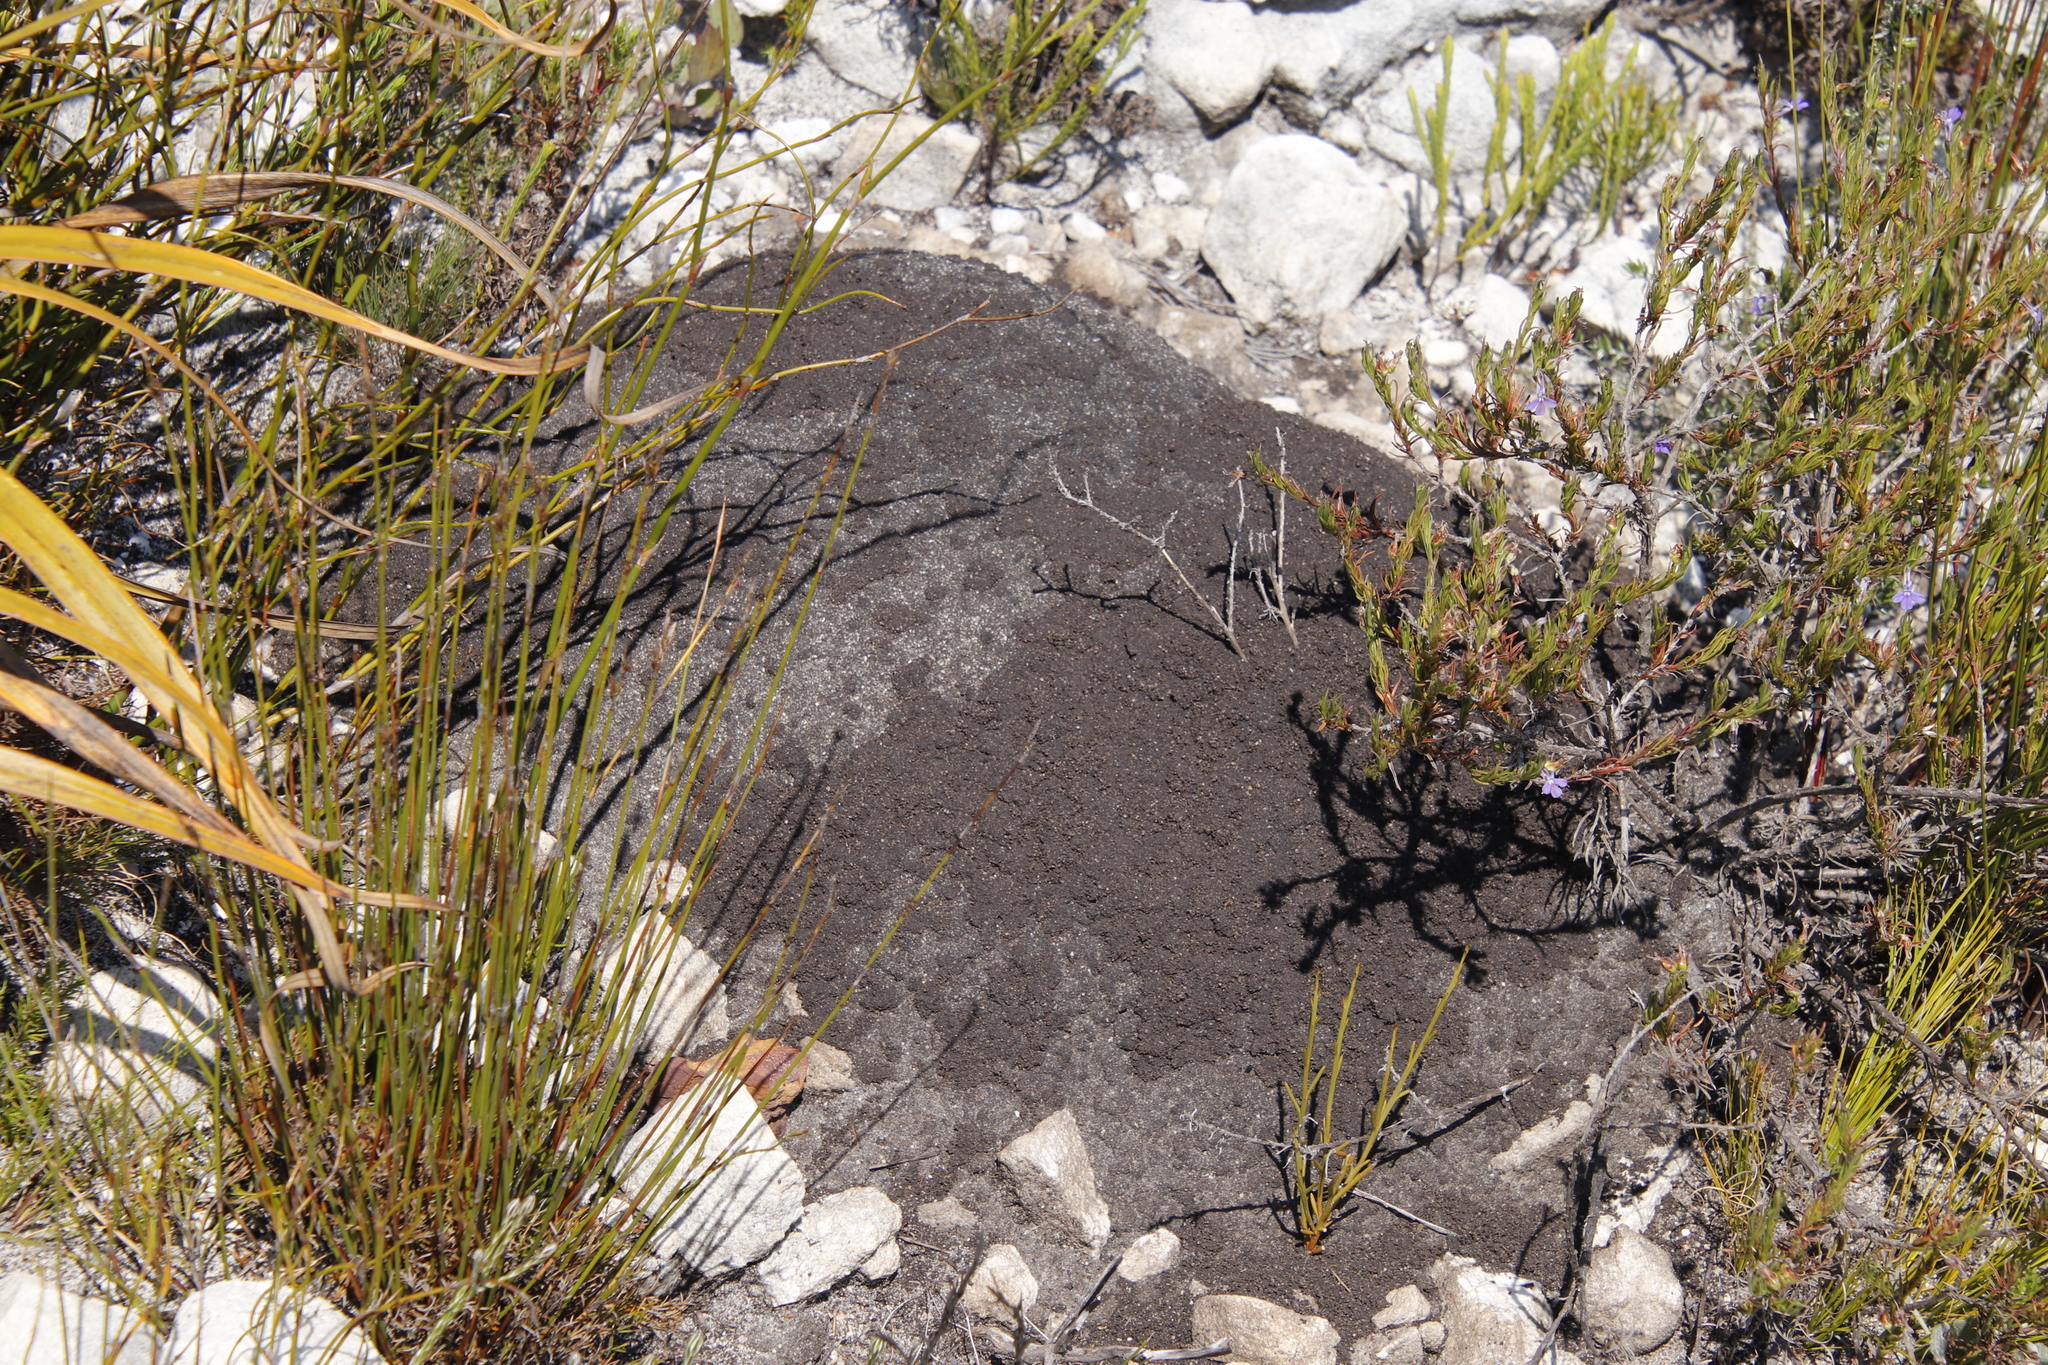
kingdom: Animalia
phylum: Arthropoda
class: Insecta
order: Blattodea
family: Termitidae
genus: Amitermes
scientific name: Amitermes hastatus
